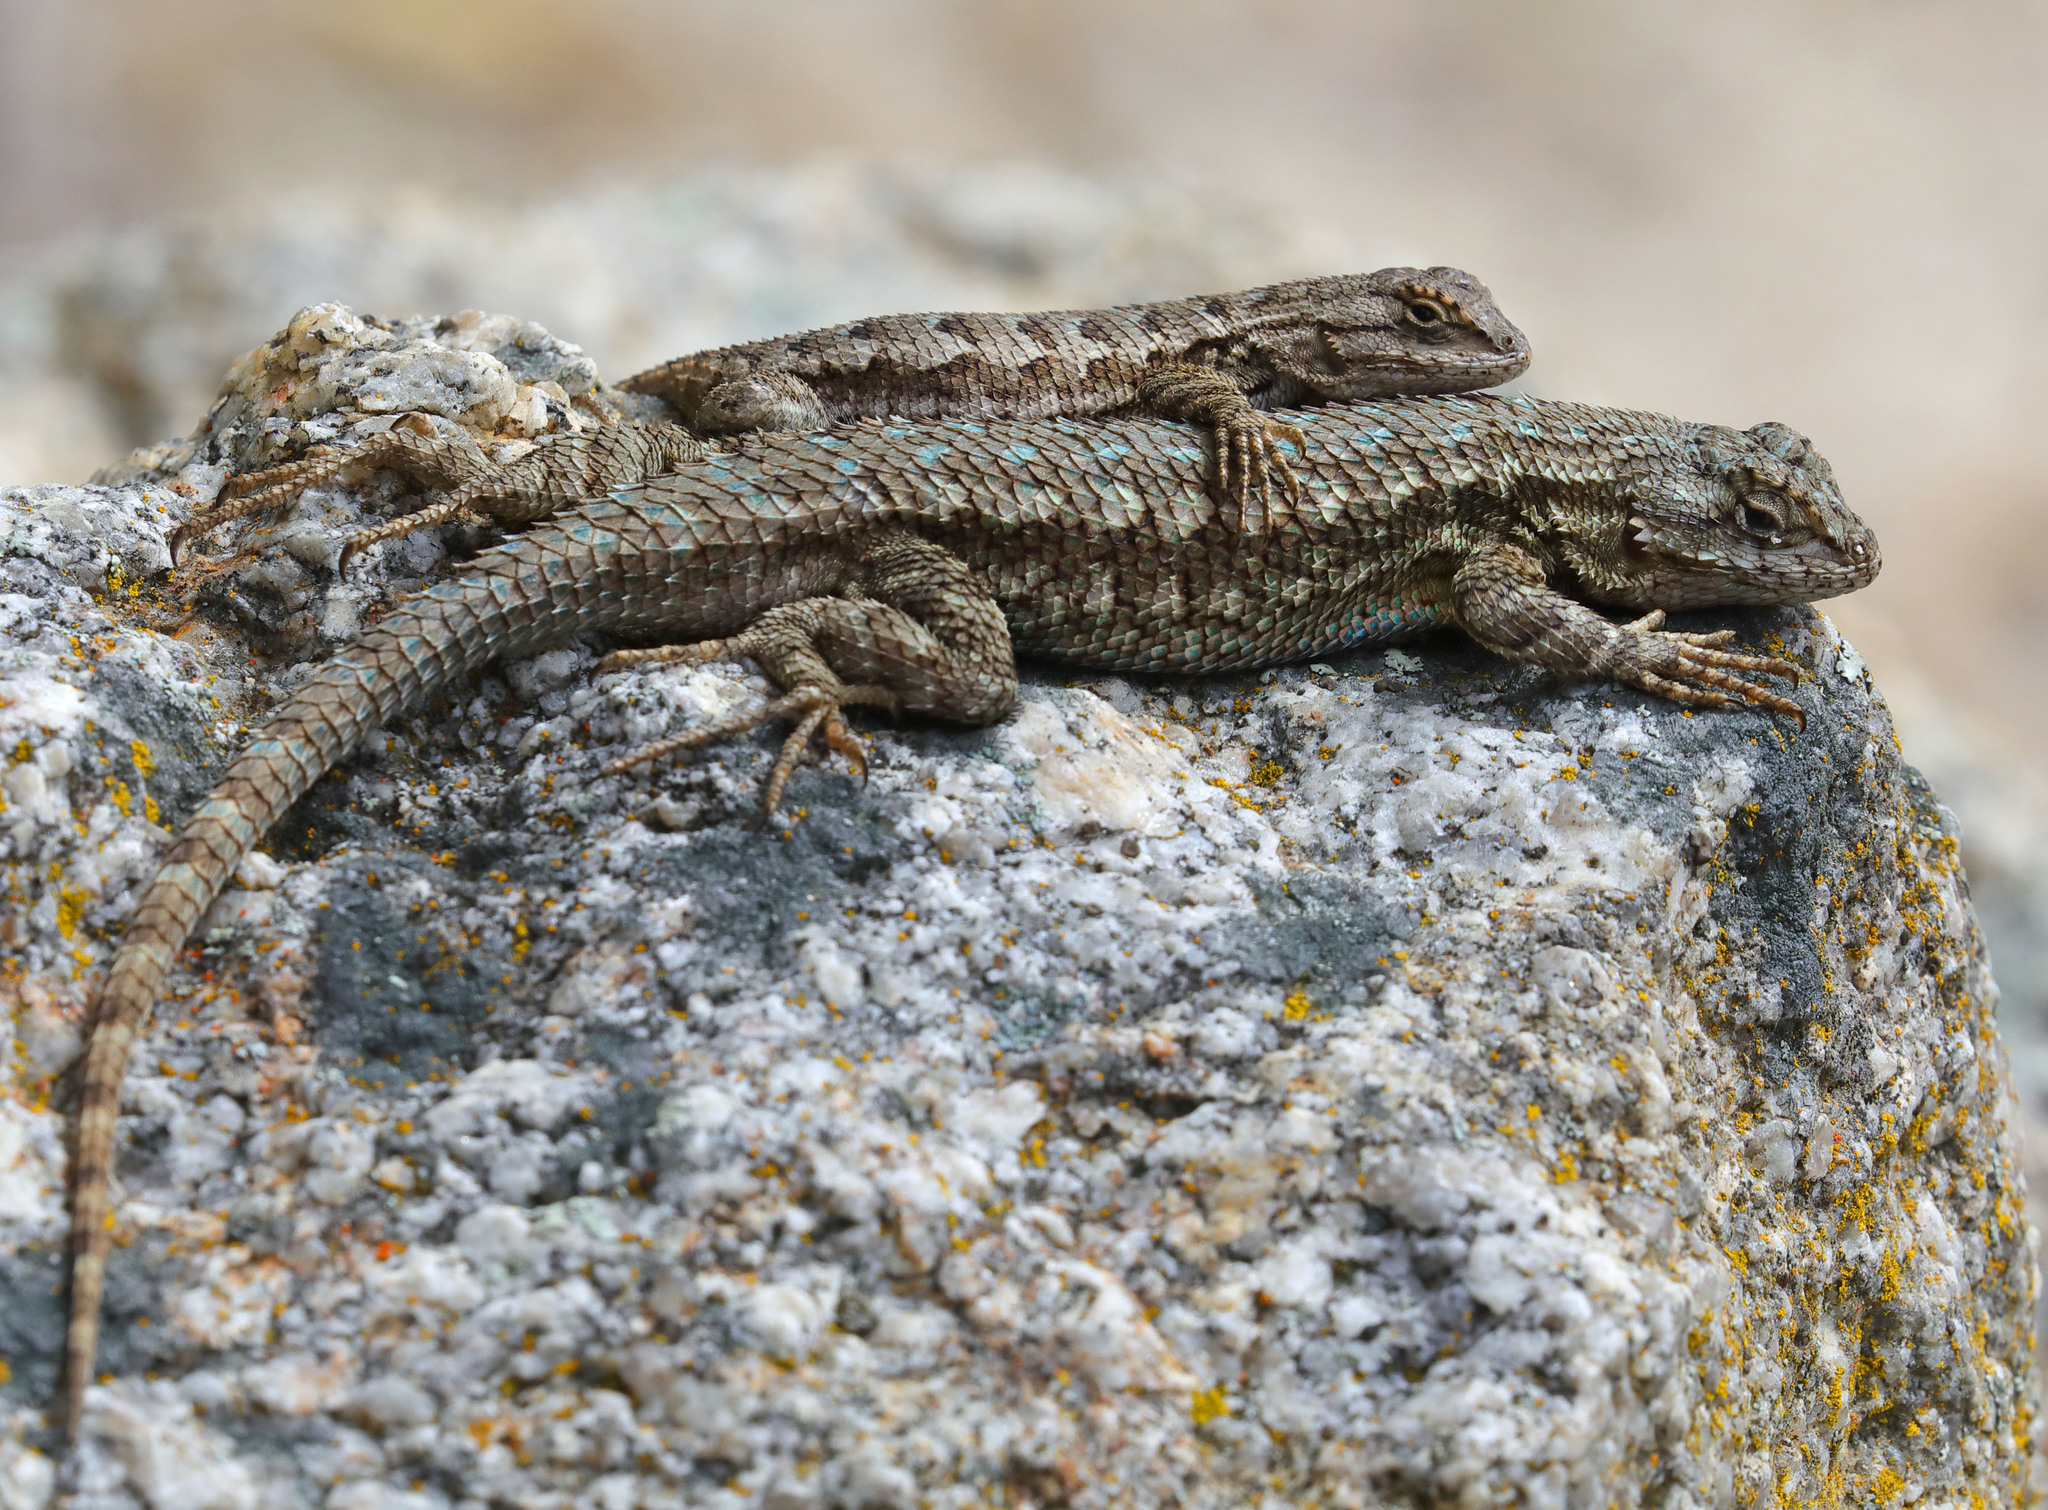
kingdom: Animalia
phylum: Chordata
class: Squamata
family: Phrynosomatidae
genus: Sceloporus
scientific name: Sceloporus occidentalis
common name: Western fence lizard
